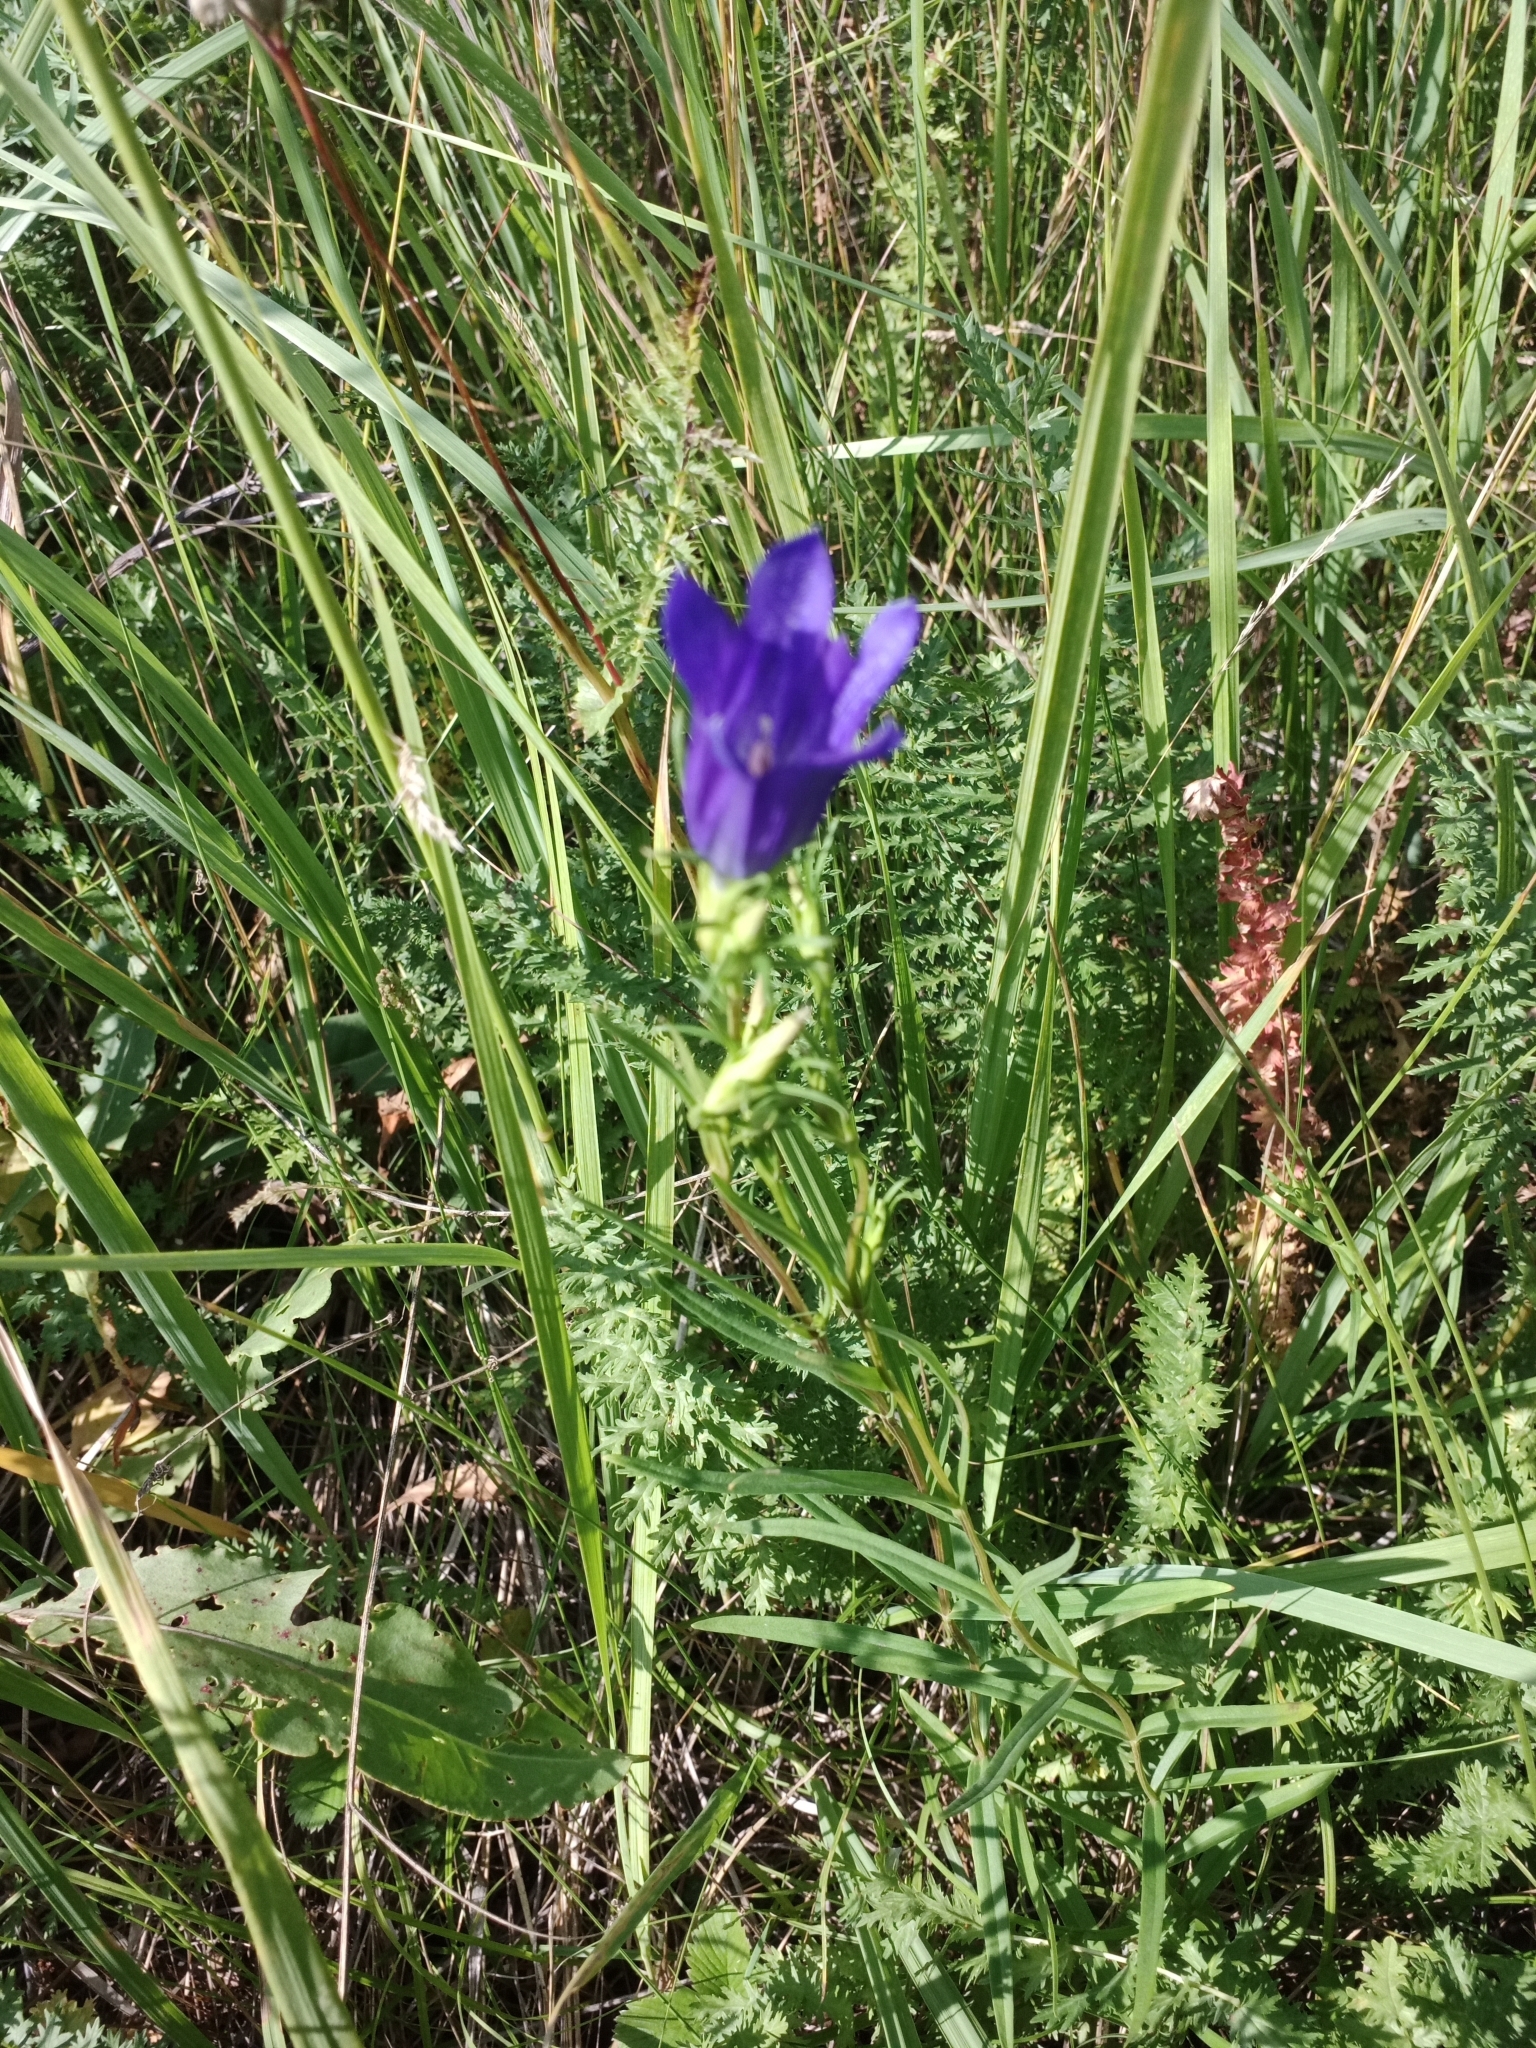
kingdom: Plantae
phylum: Tracheophyta
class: Magnoliopsida
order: Gentianales
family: Gentianaceae
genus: Gentiana
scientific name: Gentiana pneumonanthe
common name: Marsh gentian
